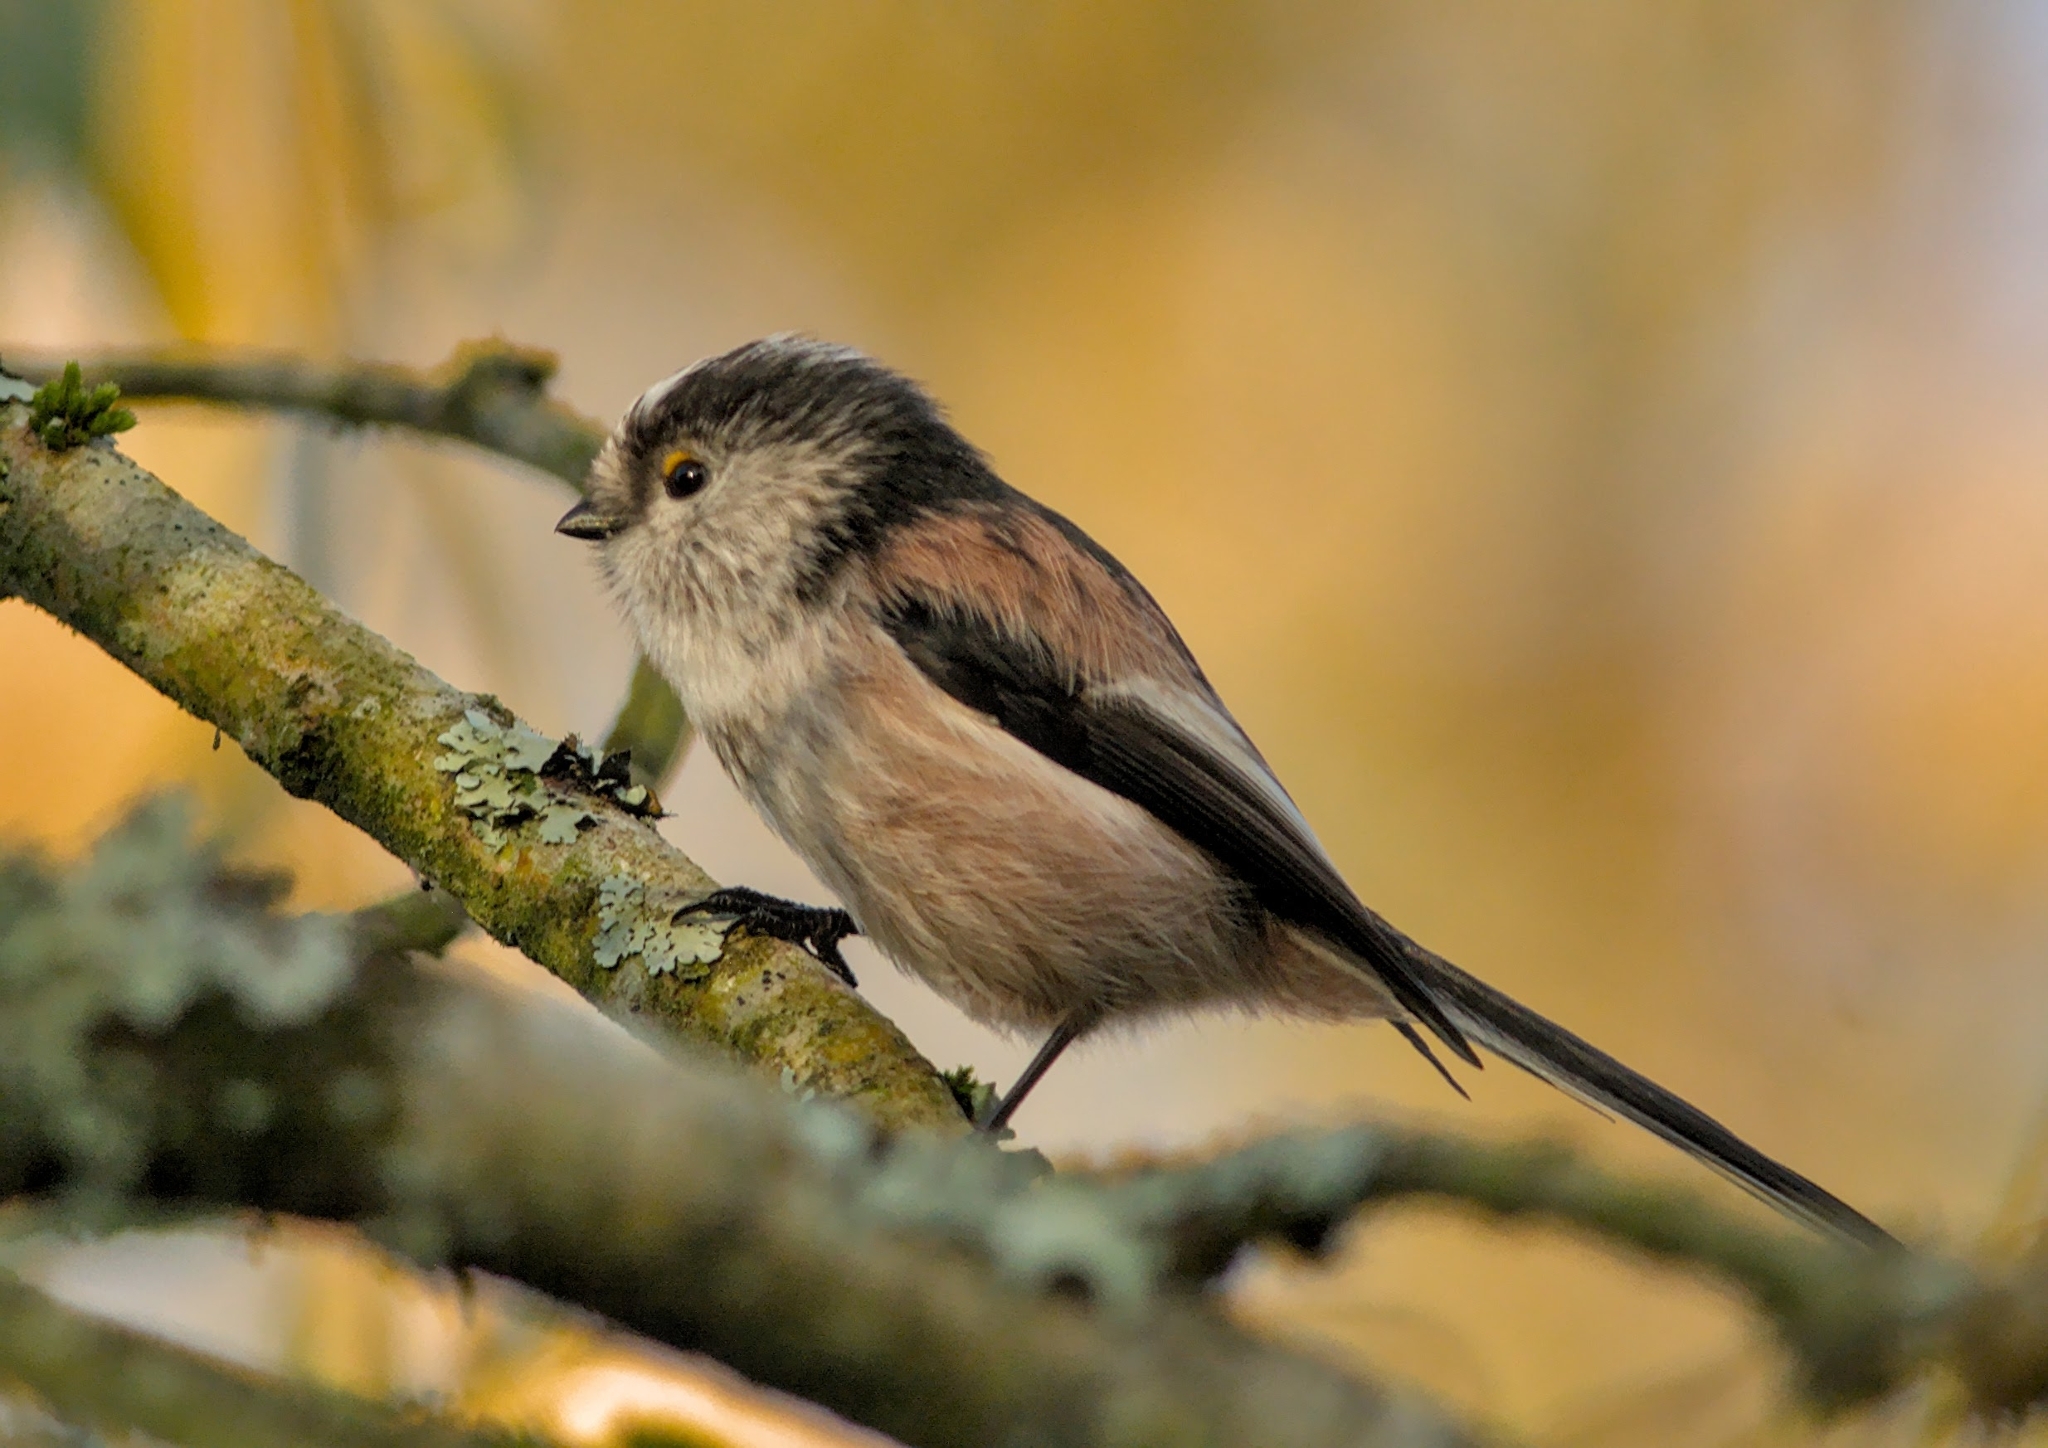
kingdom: Animalia
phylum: Chordata
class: Aves
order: Passeriformes
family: Aegithalidae
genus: Aegithalos
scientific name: Aegithalos caudatus
